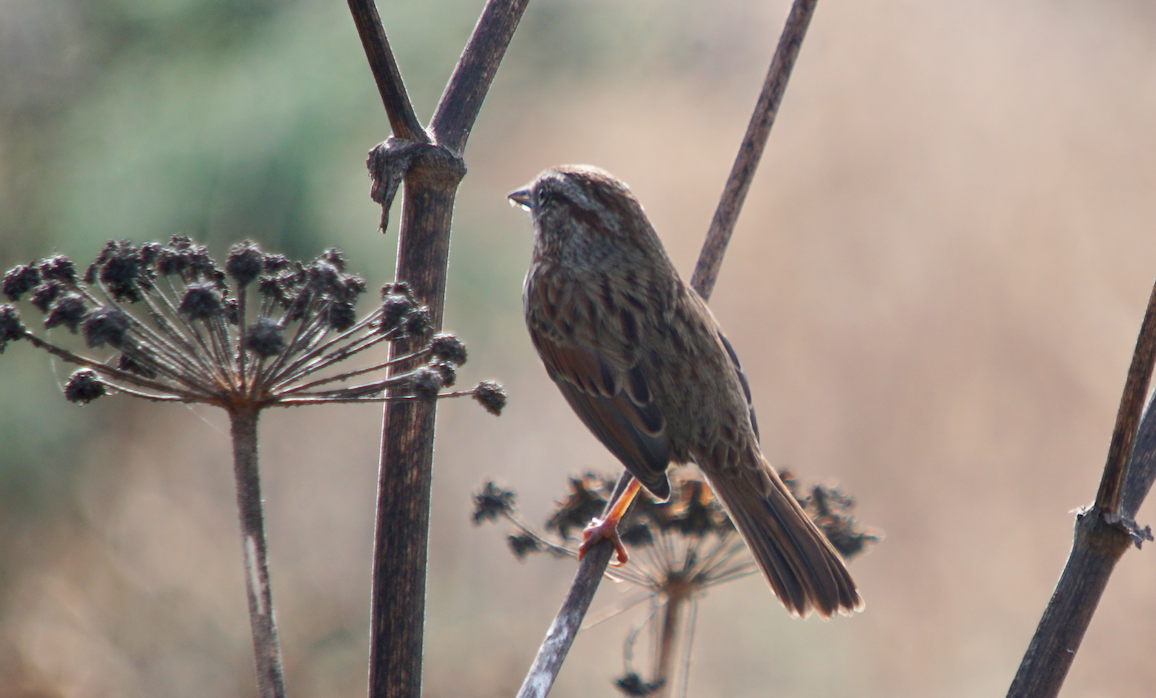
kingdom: Animalia
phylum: Chordata
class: Aves
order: Passeriformes
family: Passerellidae
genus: Melospiza
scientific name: Melospiza melodia
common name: Song sparrow
